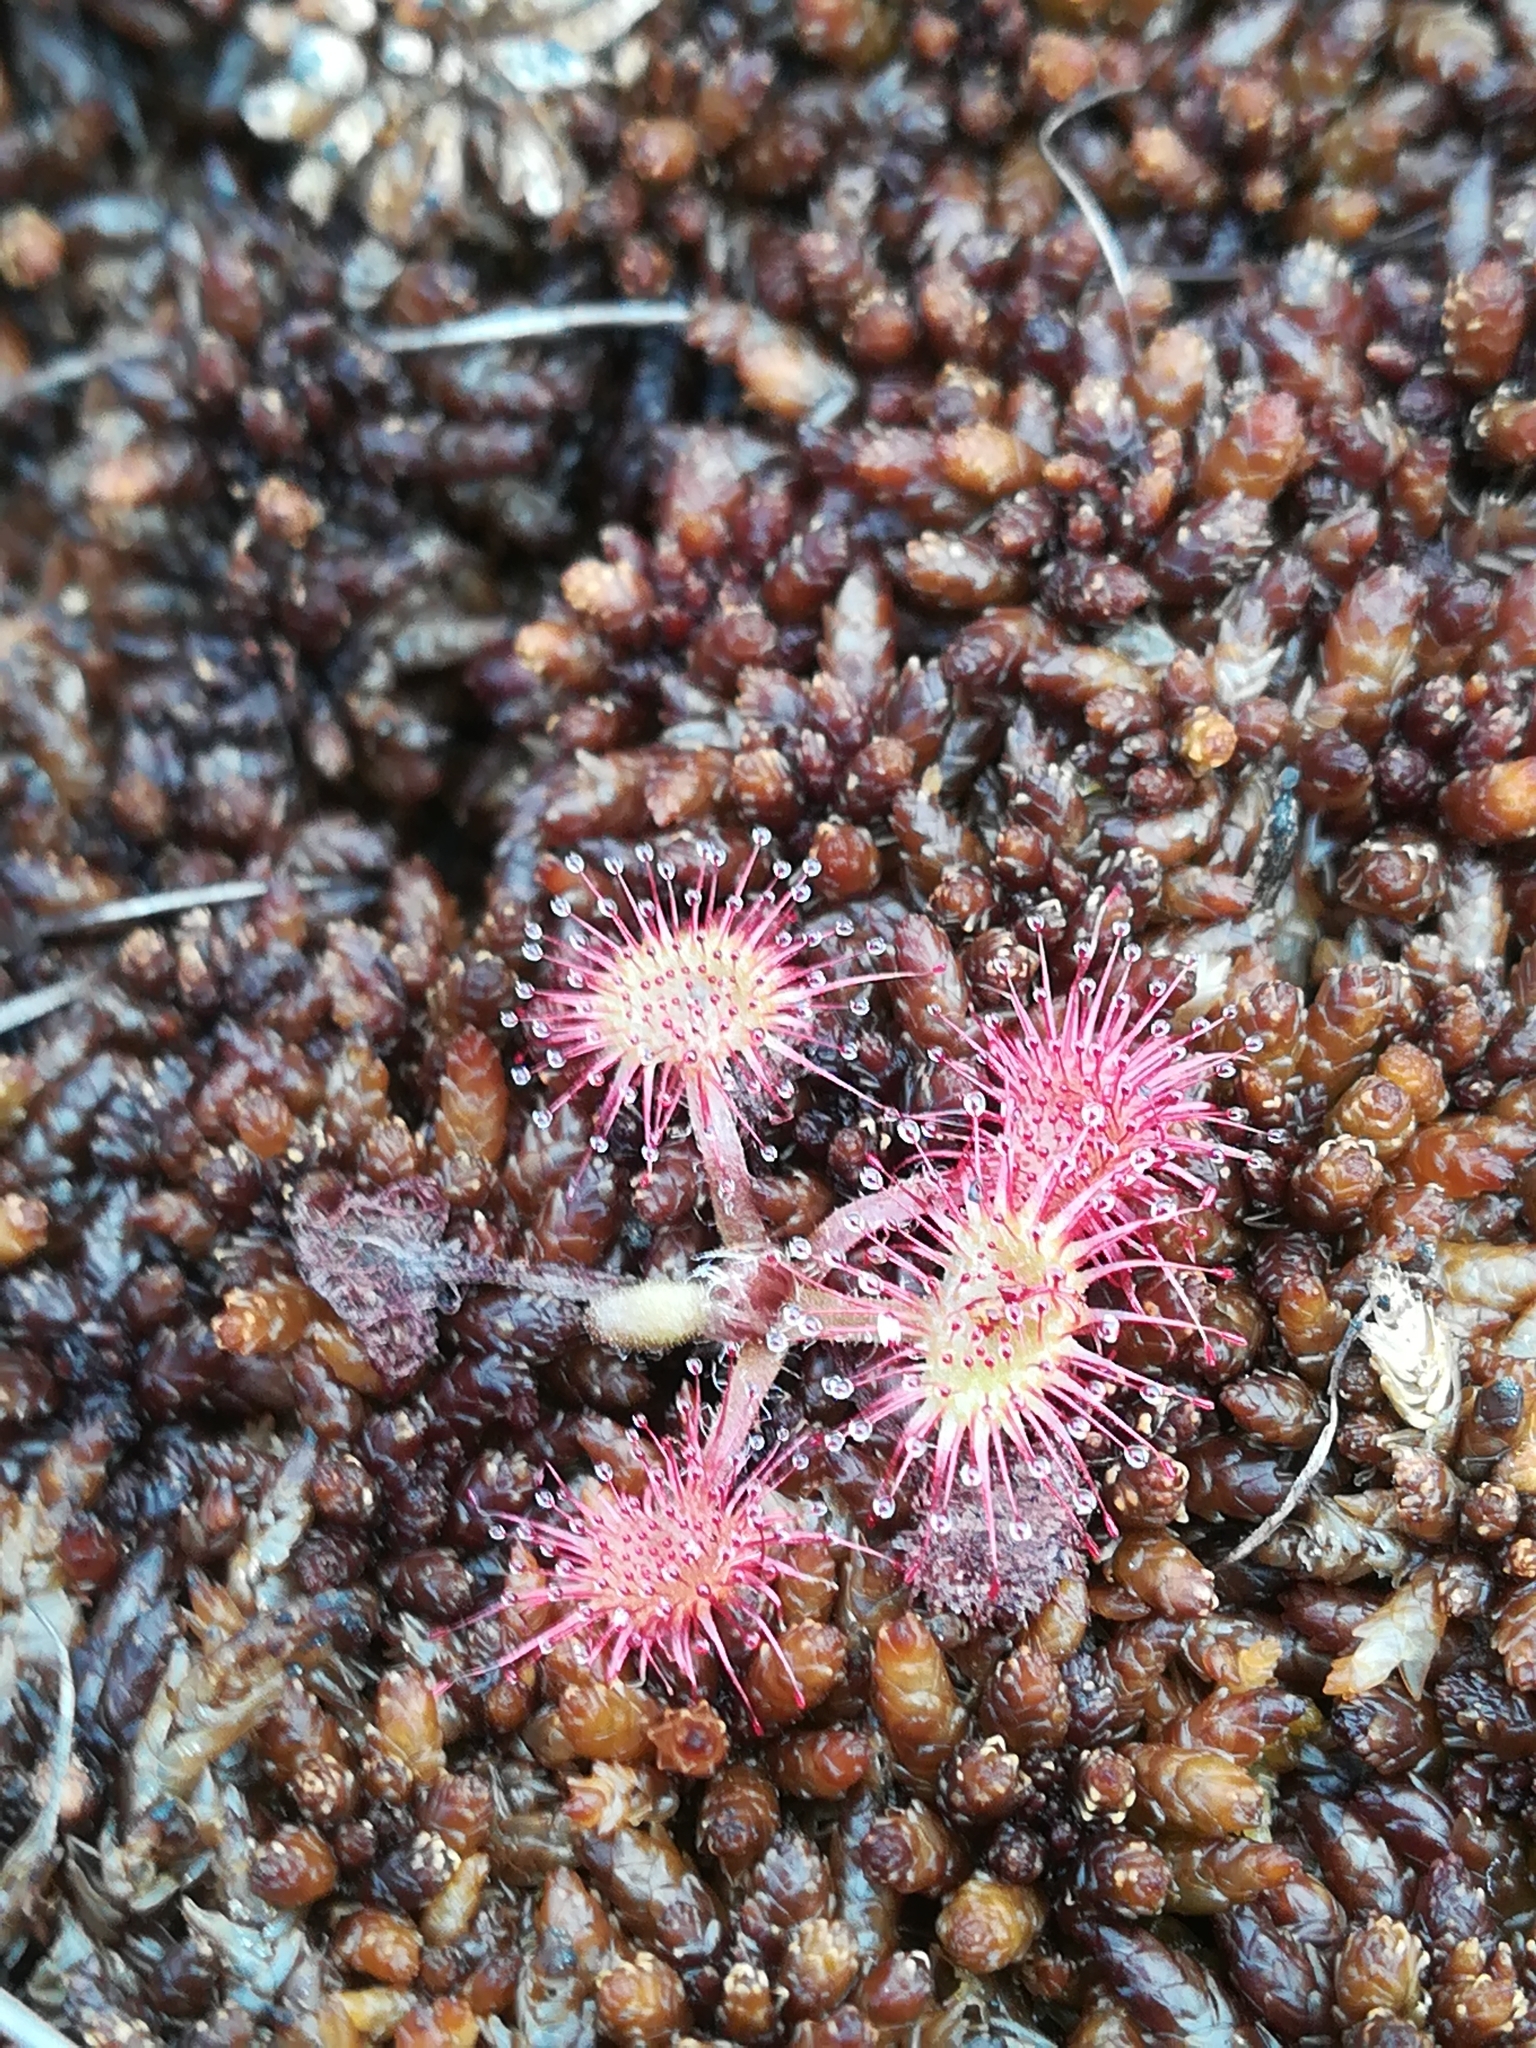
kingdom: Plantae
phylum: Tracheophyta
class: Magnoliopsida
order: Caryophyllales
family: Droseraceae
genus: Drosera
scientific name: Drosera rotundifolia
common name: Round-leaved sundew
